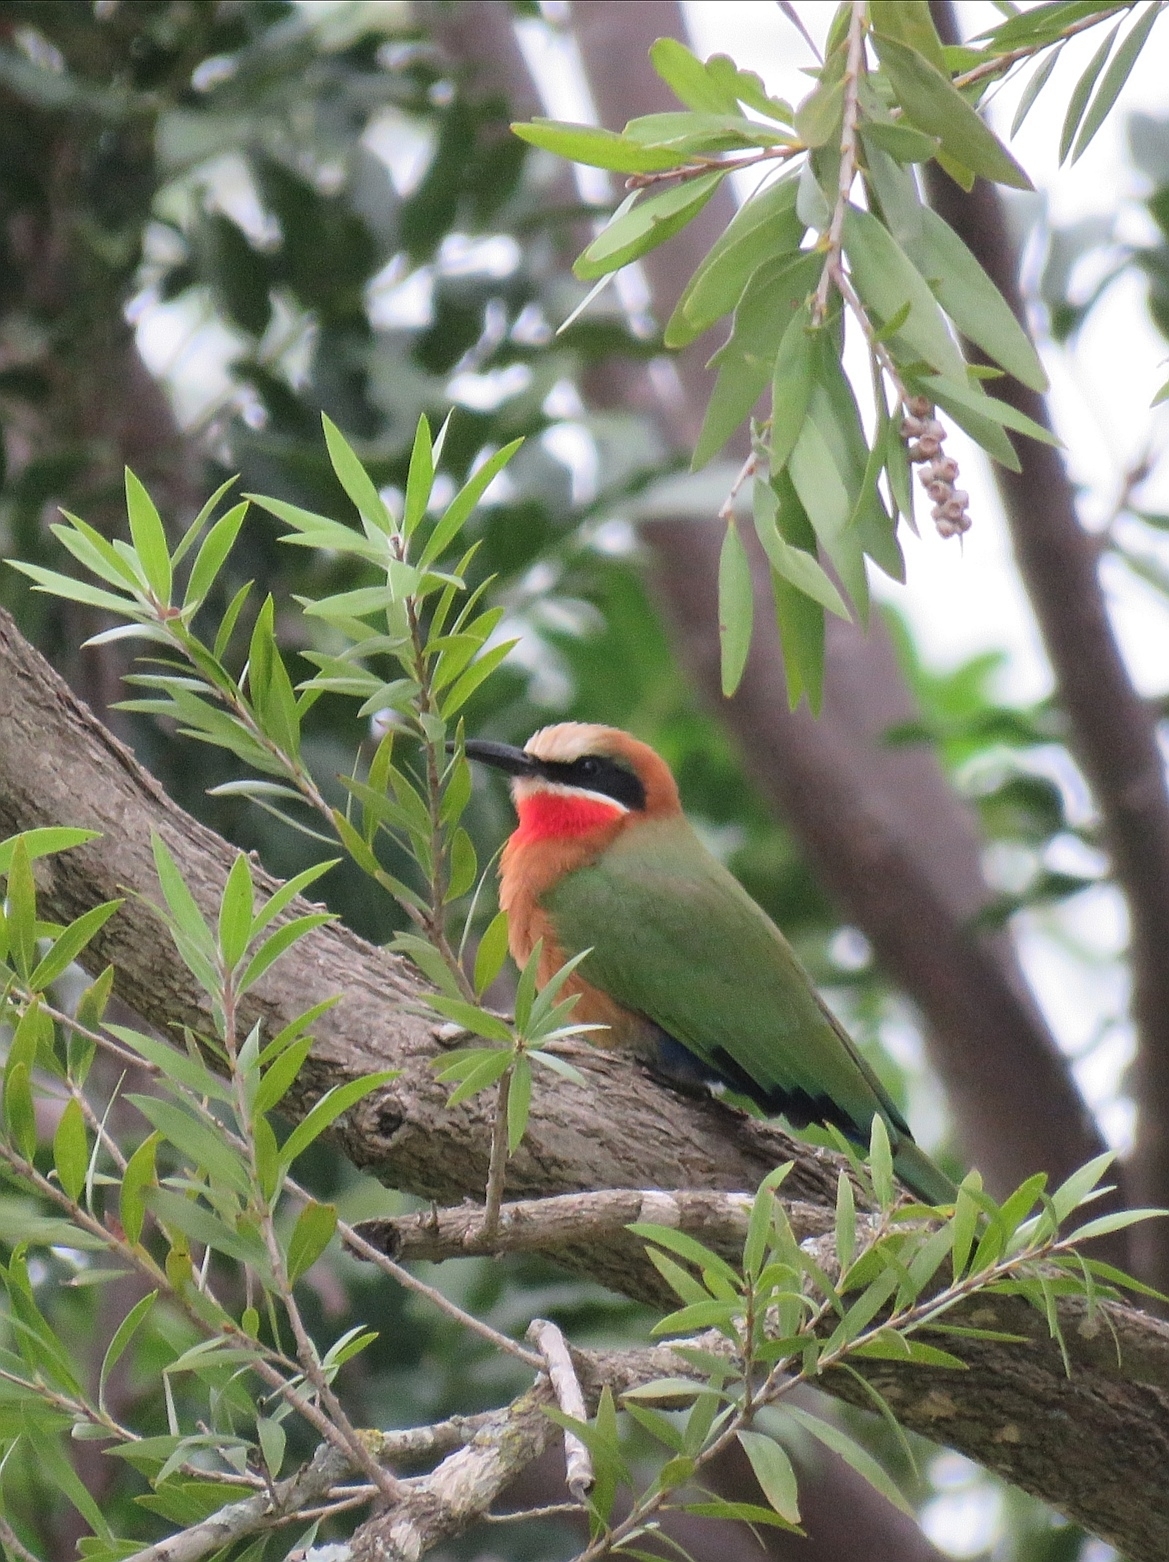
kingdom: Animalia
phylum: Chordata
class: Aves
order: Coraciiformes
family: Meropidae
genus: Merops
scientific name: Merops bullockoides
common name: White-fronted bee-eater
